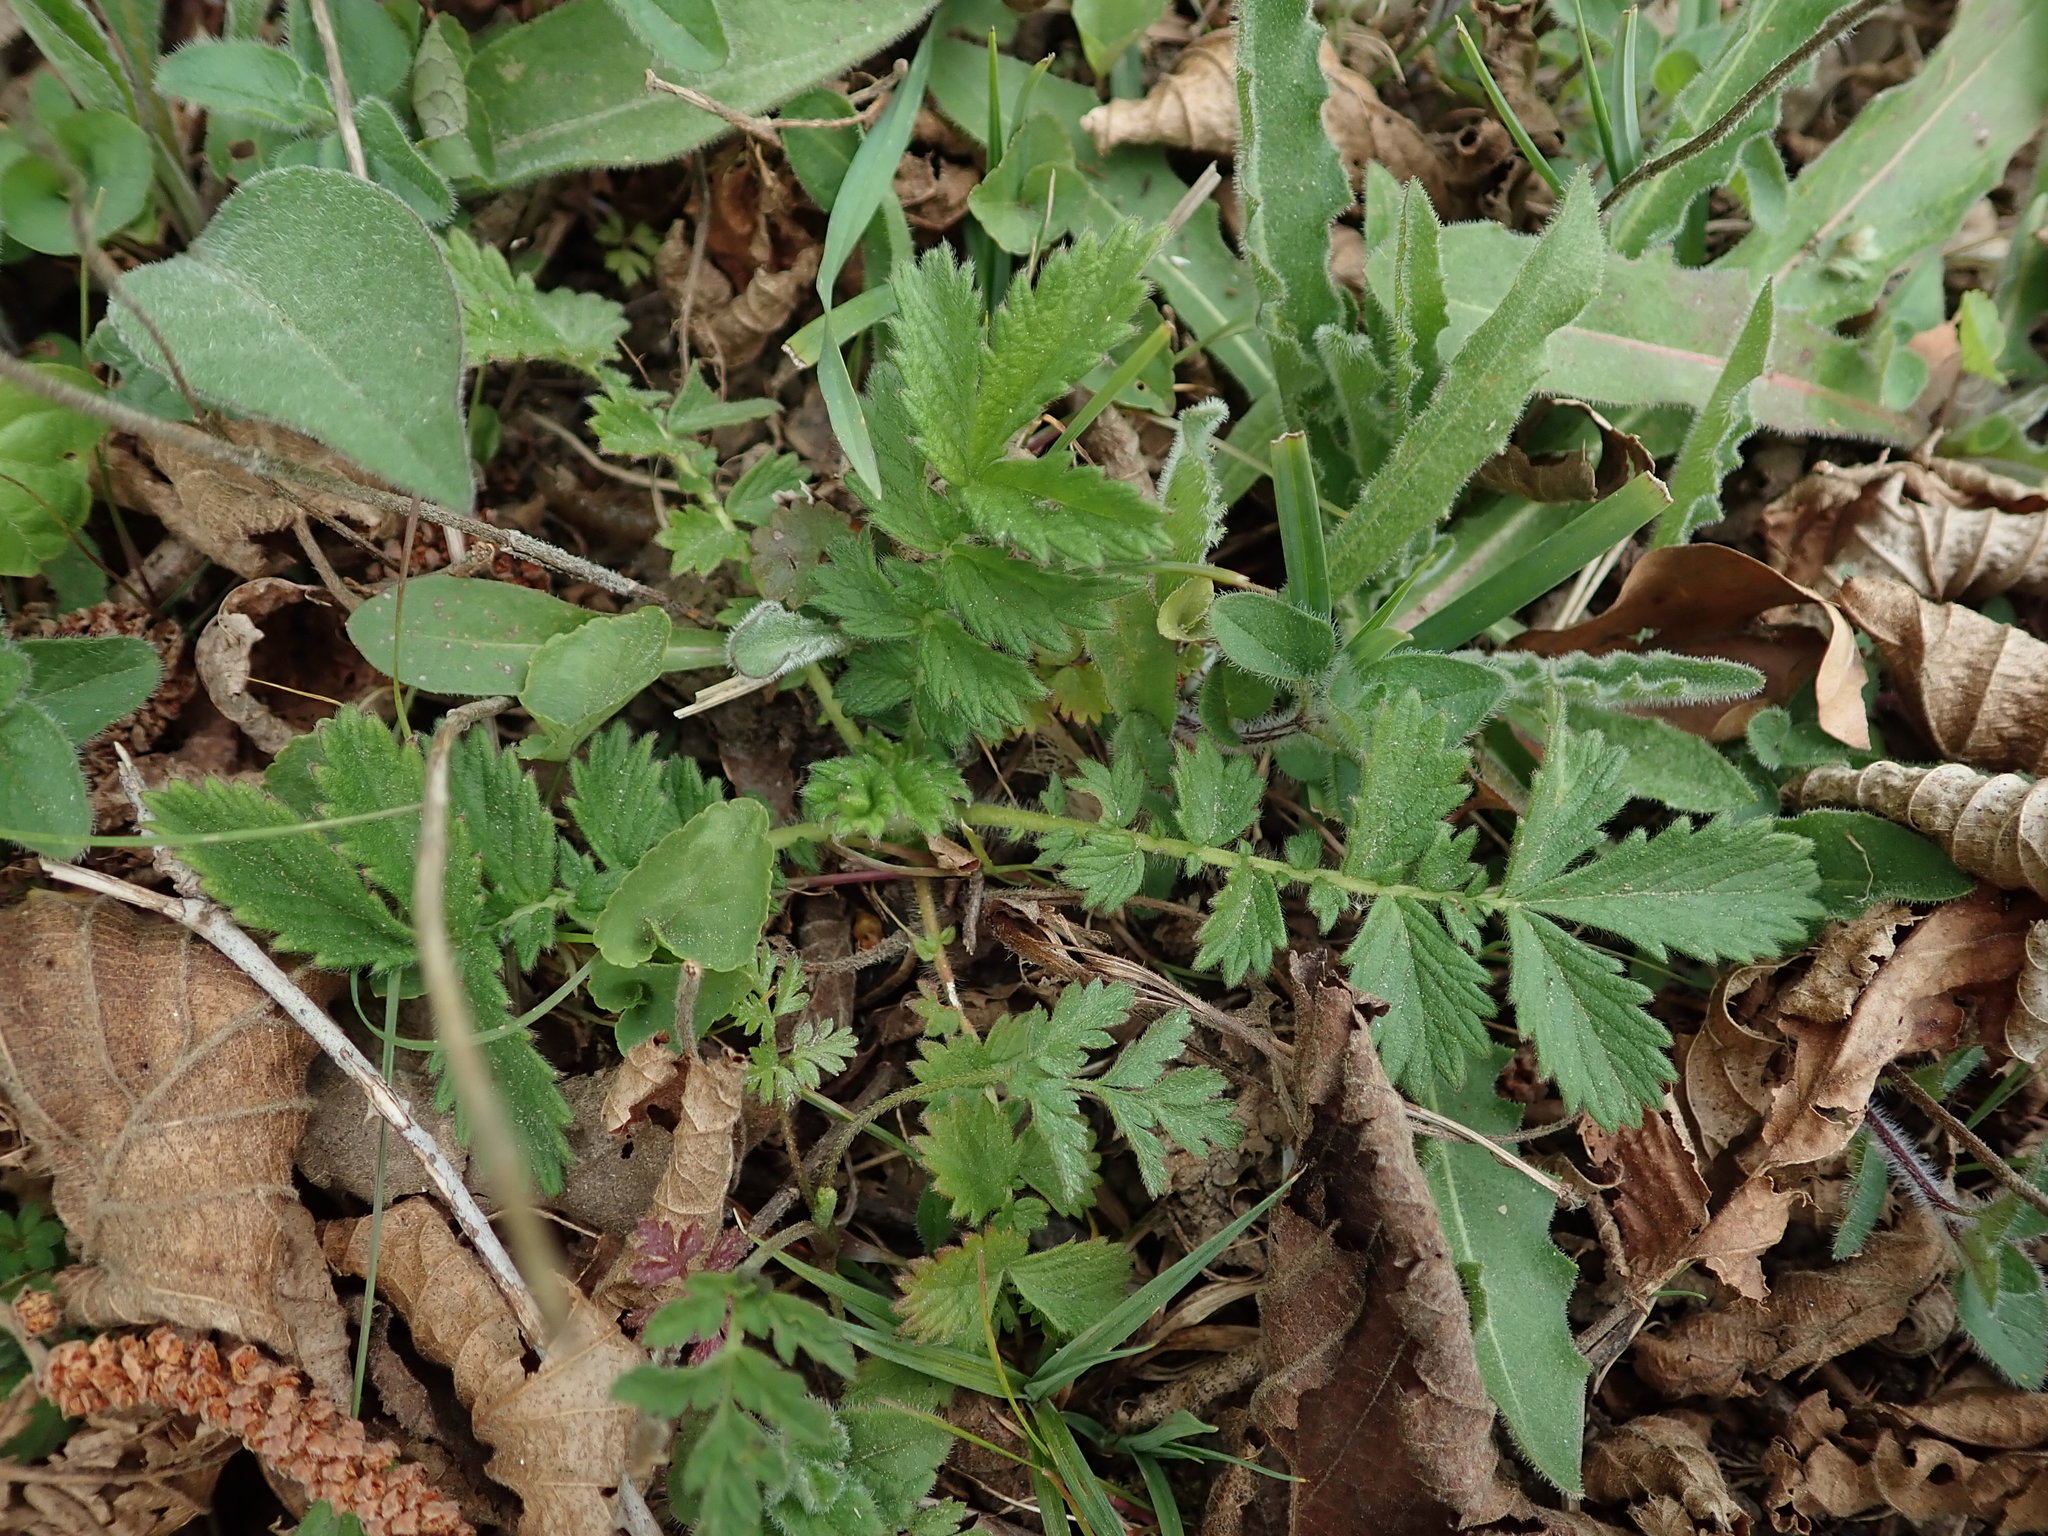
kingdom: Plantae
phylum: Tracheophyta
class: Magnoliopsida
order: Rosales
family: Rosaceae
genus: Agrimonia
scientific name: Agrimonia eupatoria
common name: Agrimony
